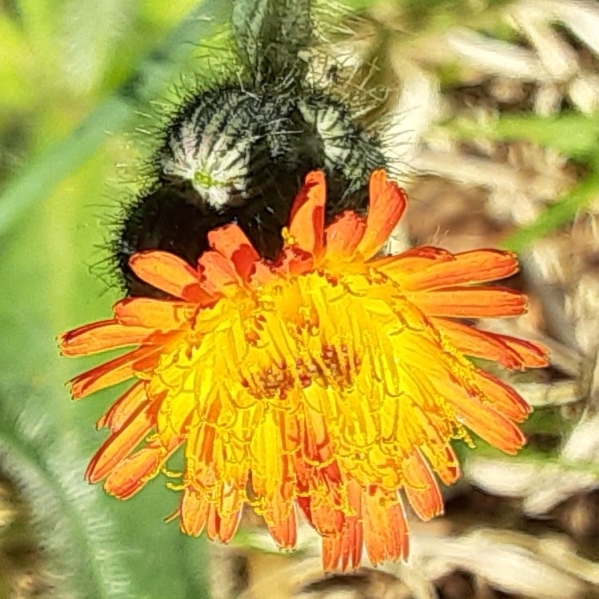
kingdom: Plantae
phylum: Tracheophyta
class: Magnoliopsida
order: Asterales
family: Asteraceae
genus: Pilosella
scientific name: Pilosella aurantiaca
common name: Fox-and-cubs
